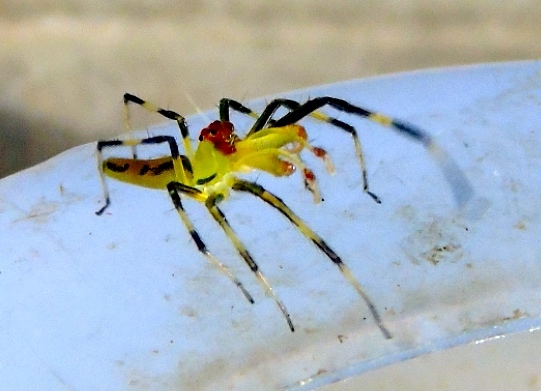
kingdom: Animalia
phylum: Arthropoda
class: Arachnida
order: Araneae
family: Salticidae
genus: Lyssomanes
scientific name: Lyssomanes
